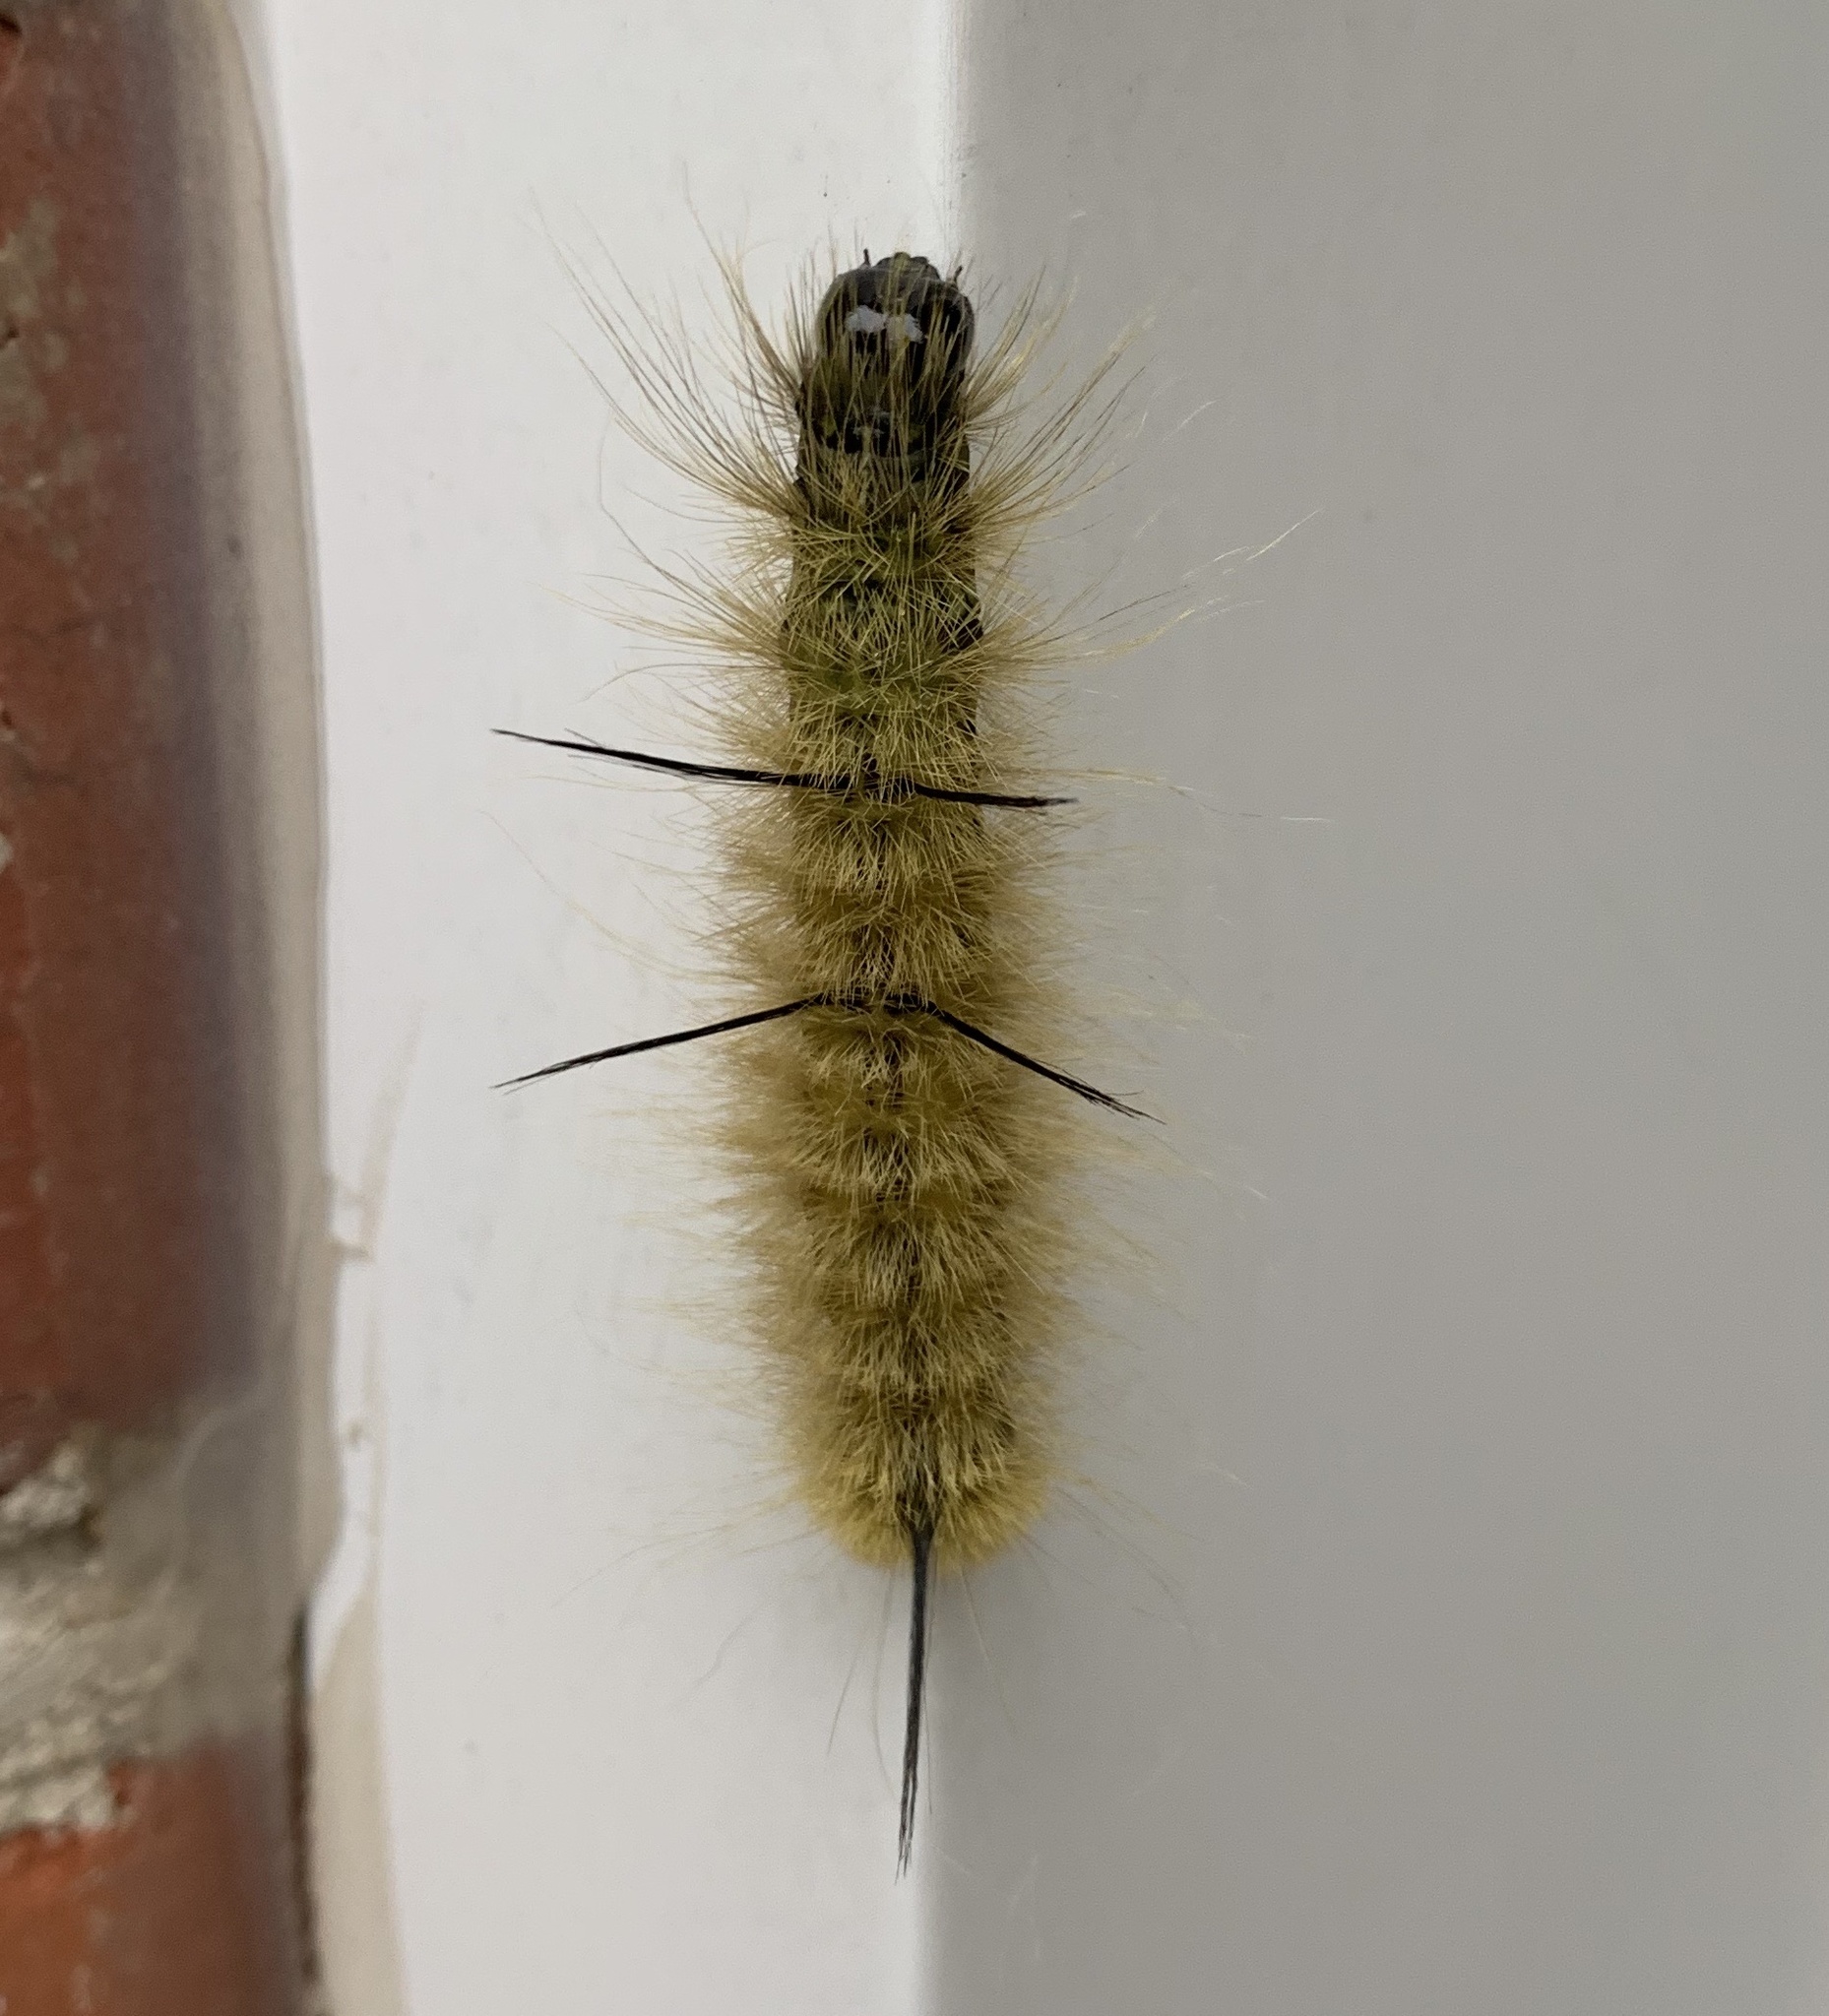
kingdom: Animalia
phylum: Arthropoda
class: Insecta
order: Lepidoptera
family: Noctuidae
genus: Acronicta
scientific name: Acronicta americana
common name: American dagger
